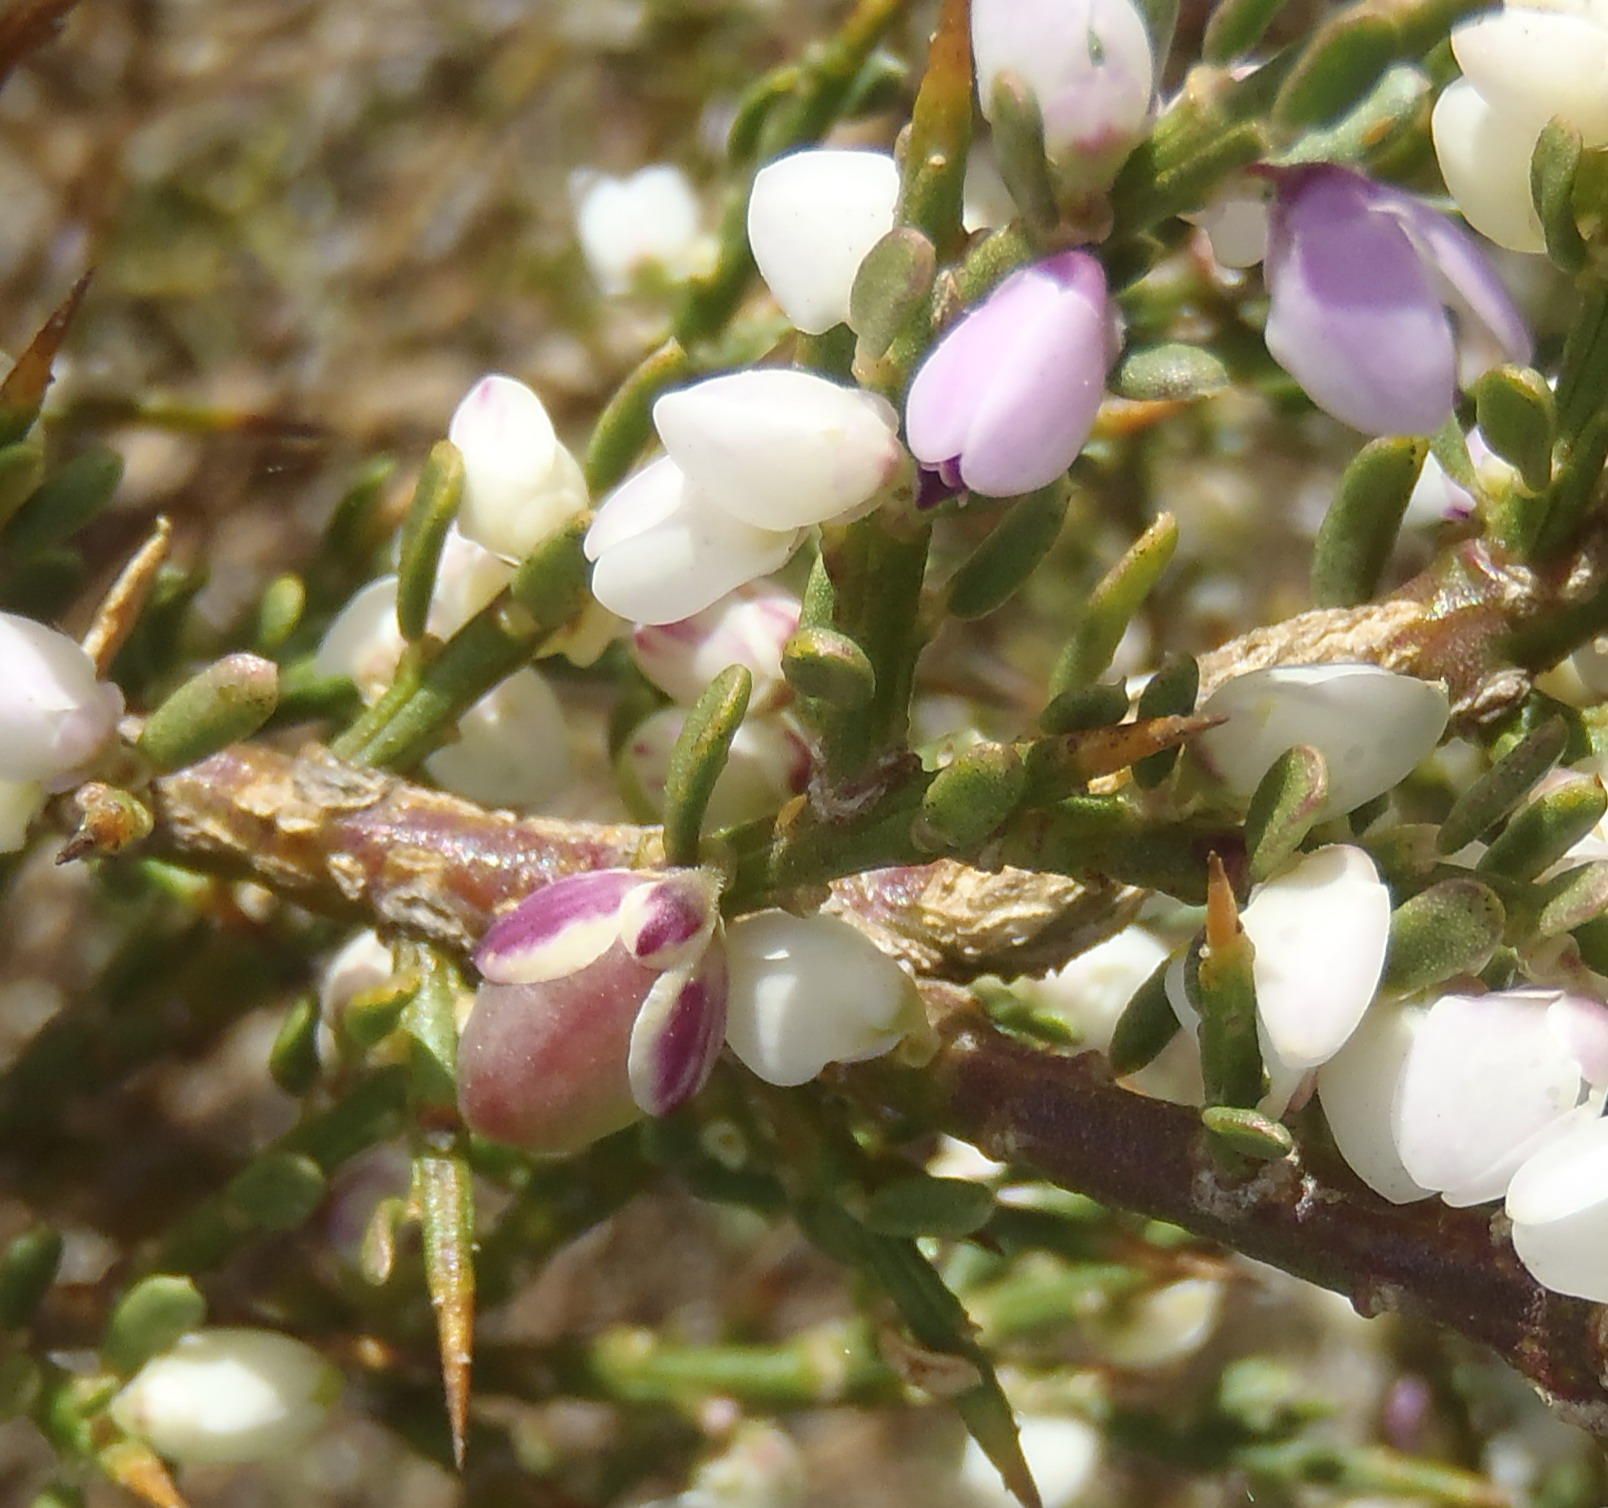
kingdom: Plantae
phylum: Tracheophyta
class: Magnoliopsida
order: Fabales
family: Polygalaceae
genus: Muraltia
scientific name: Muraltia spinosa
